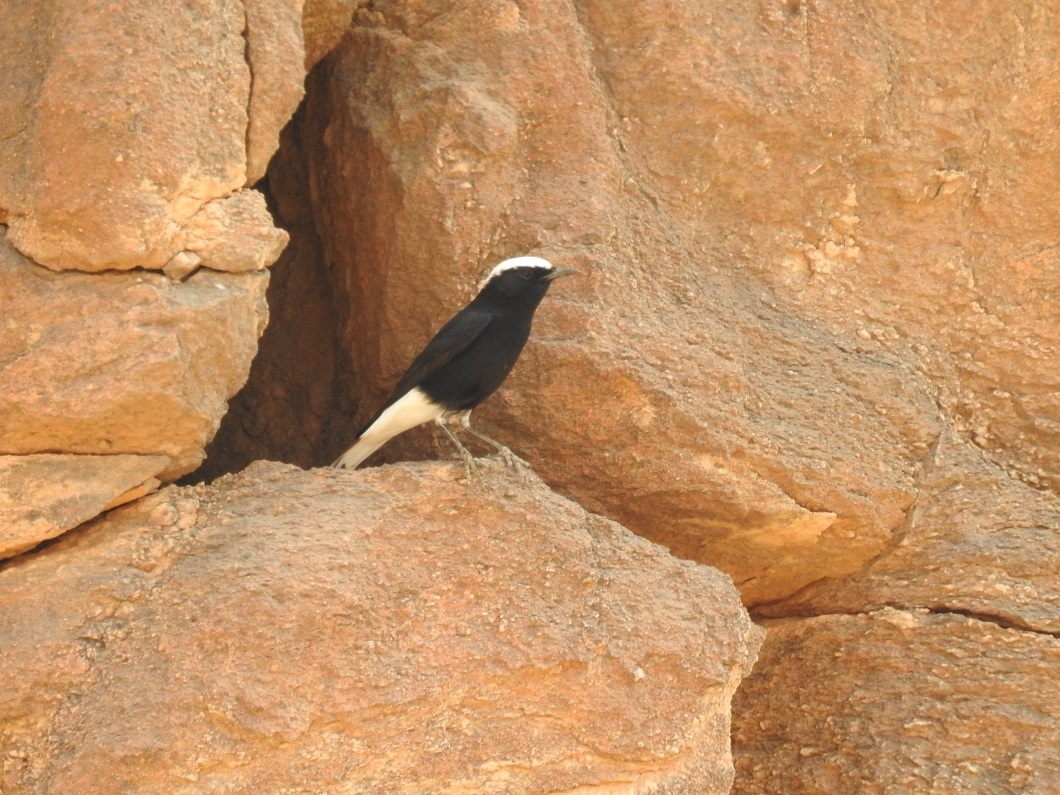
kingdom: Animalia
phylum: Chordata
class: Aves
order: Passeriformes
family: Muscicapidae
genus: Oenanthe
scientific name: Oenanthe leucopyga
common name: White-crowned wheatear
